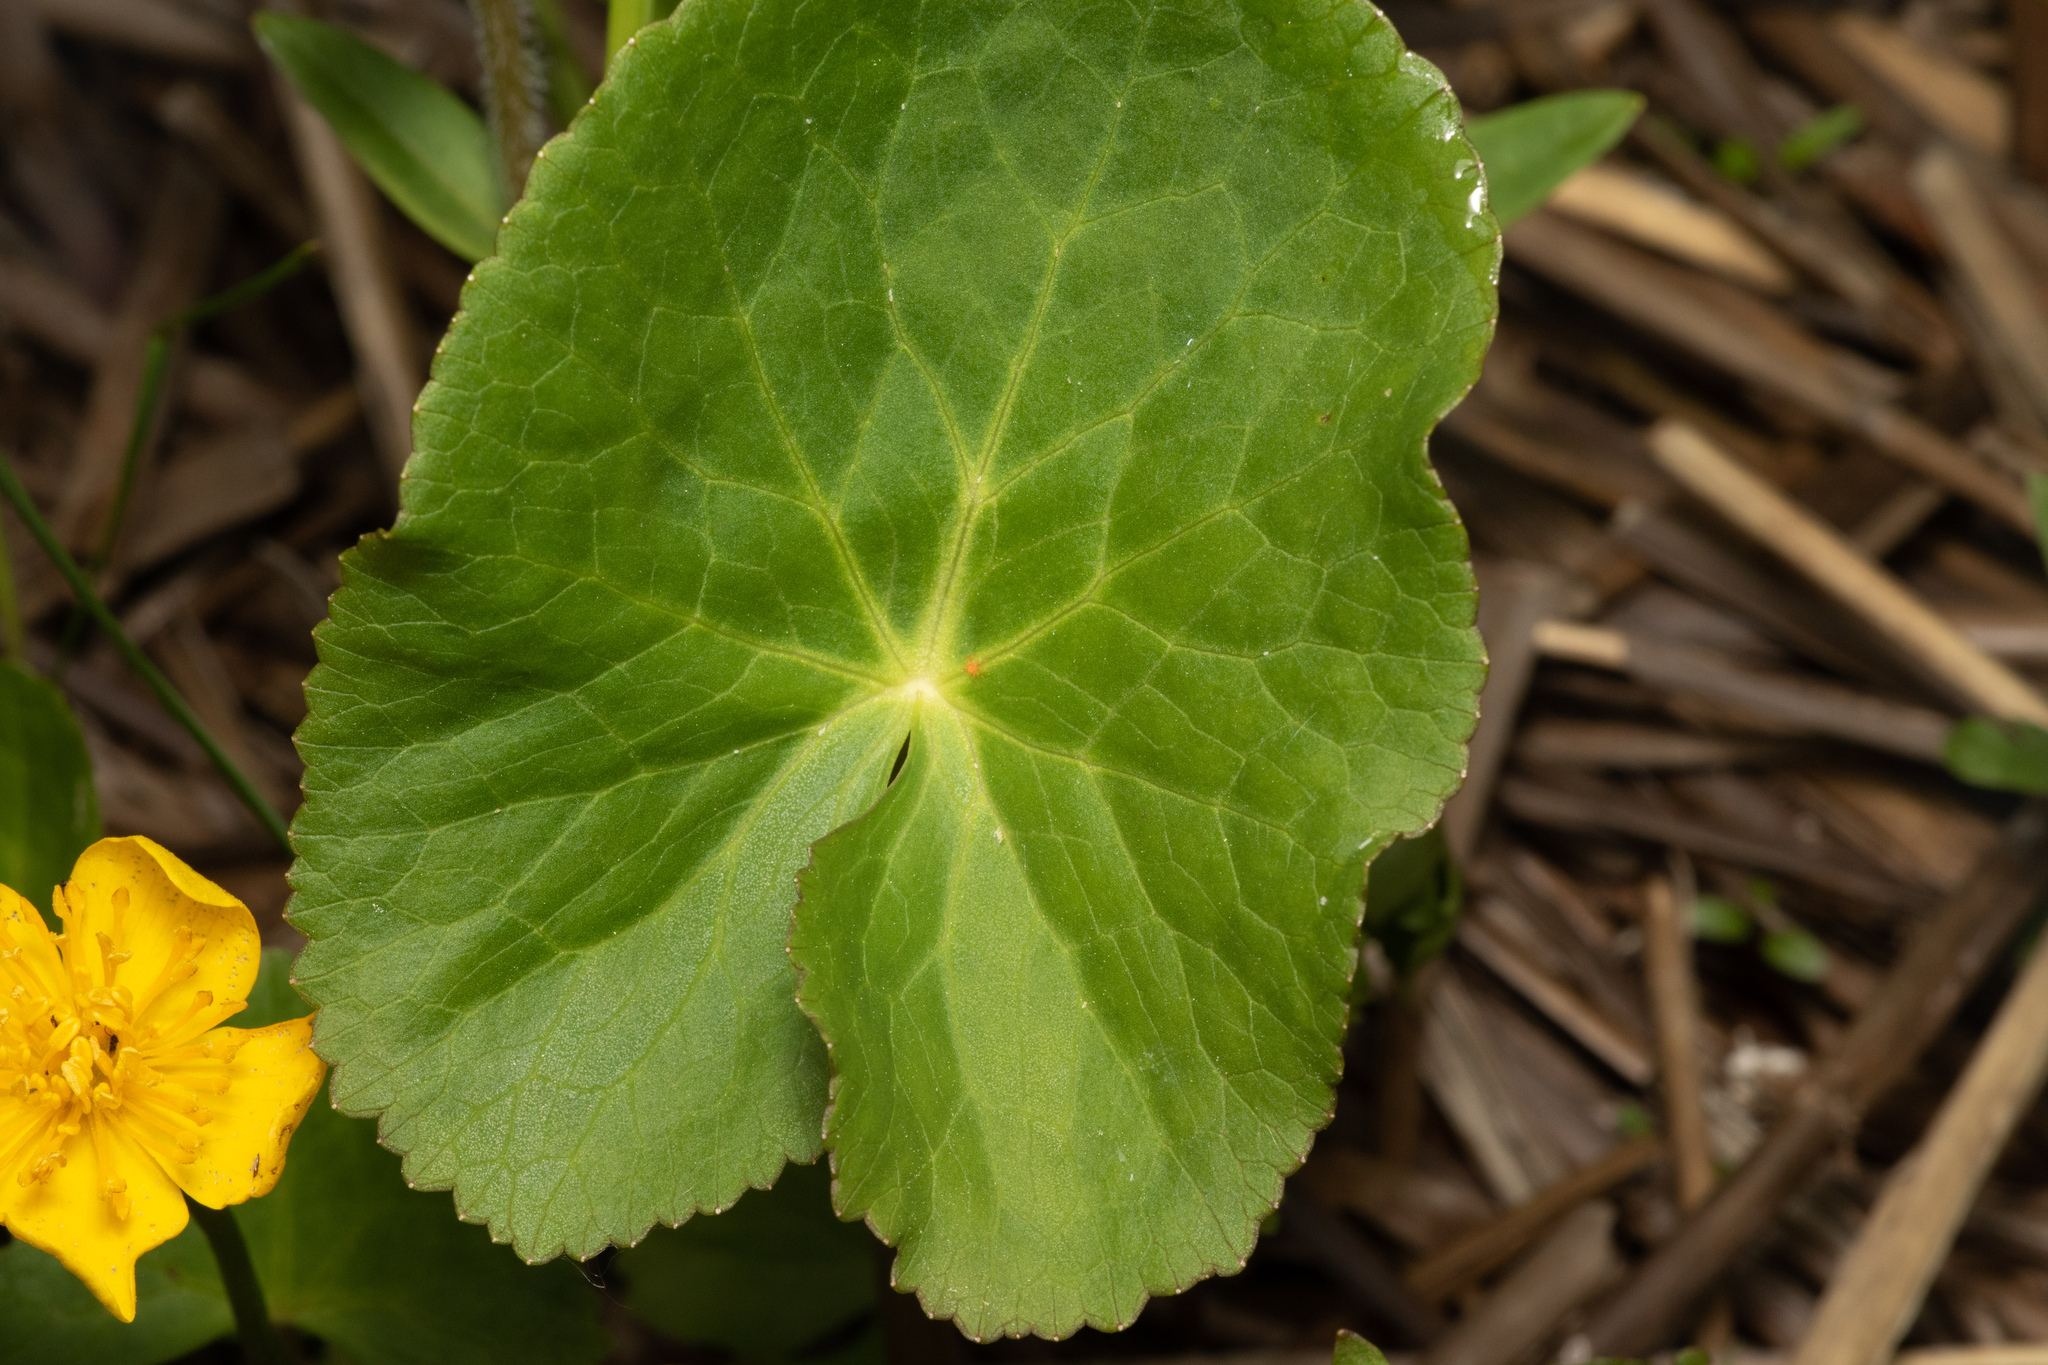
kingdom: Plantae
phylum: Tracheophyta
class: Magnoliopsida
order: Ranunculales
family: Ranunculaceae
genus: Caltha
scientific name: Caltha palustris
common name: Marsh marigold
